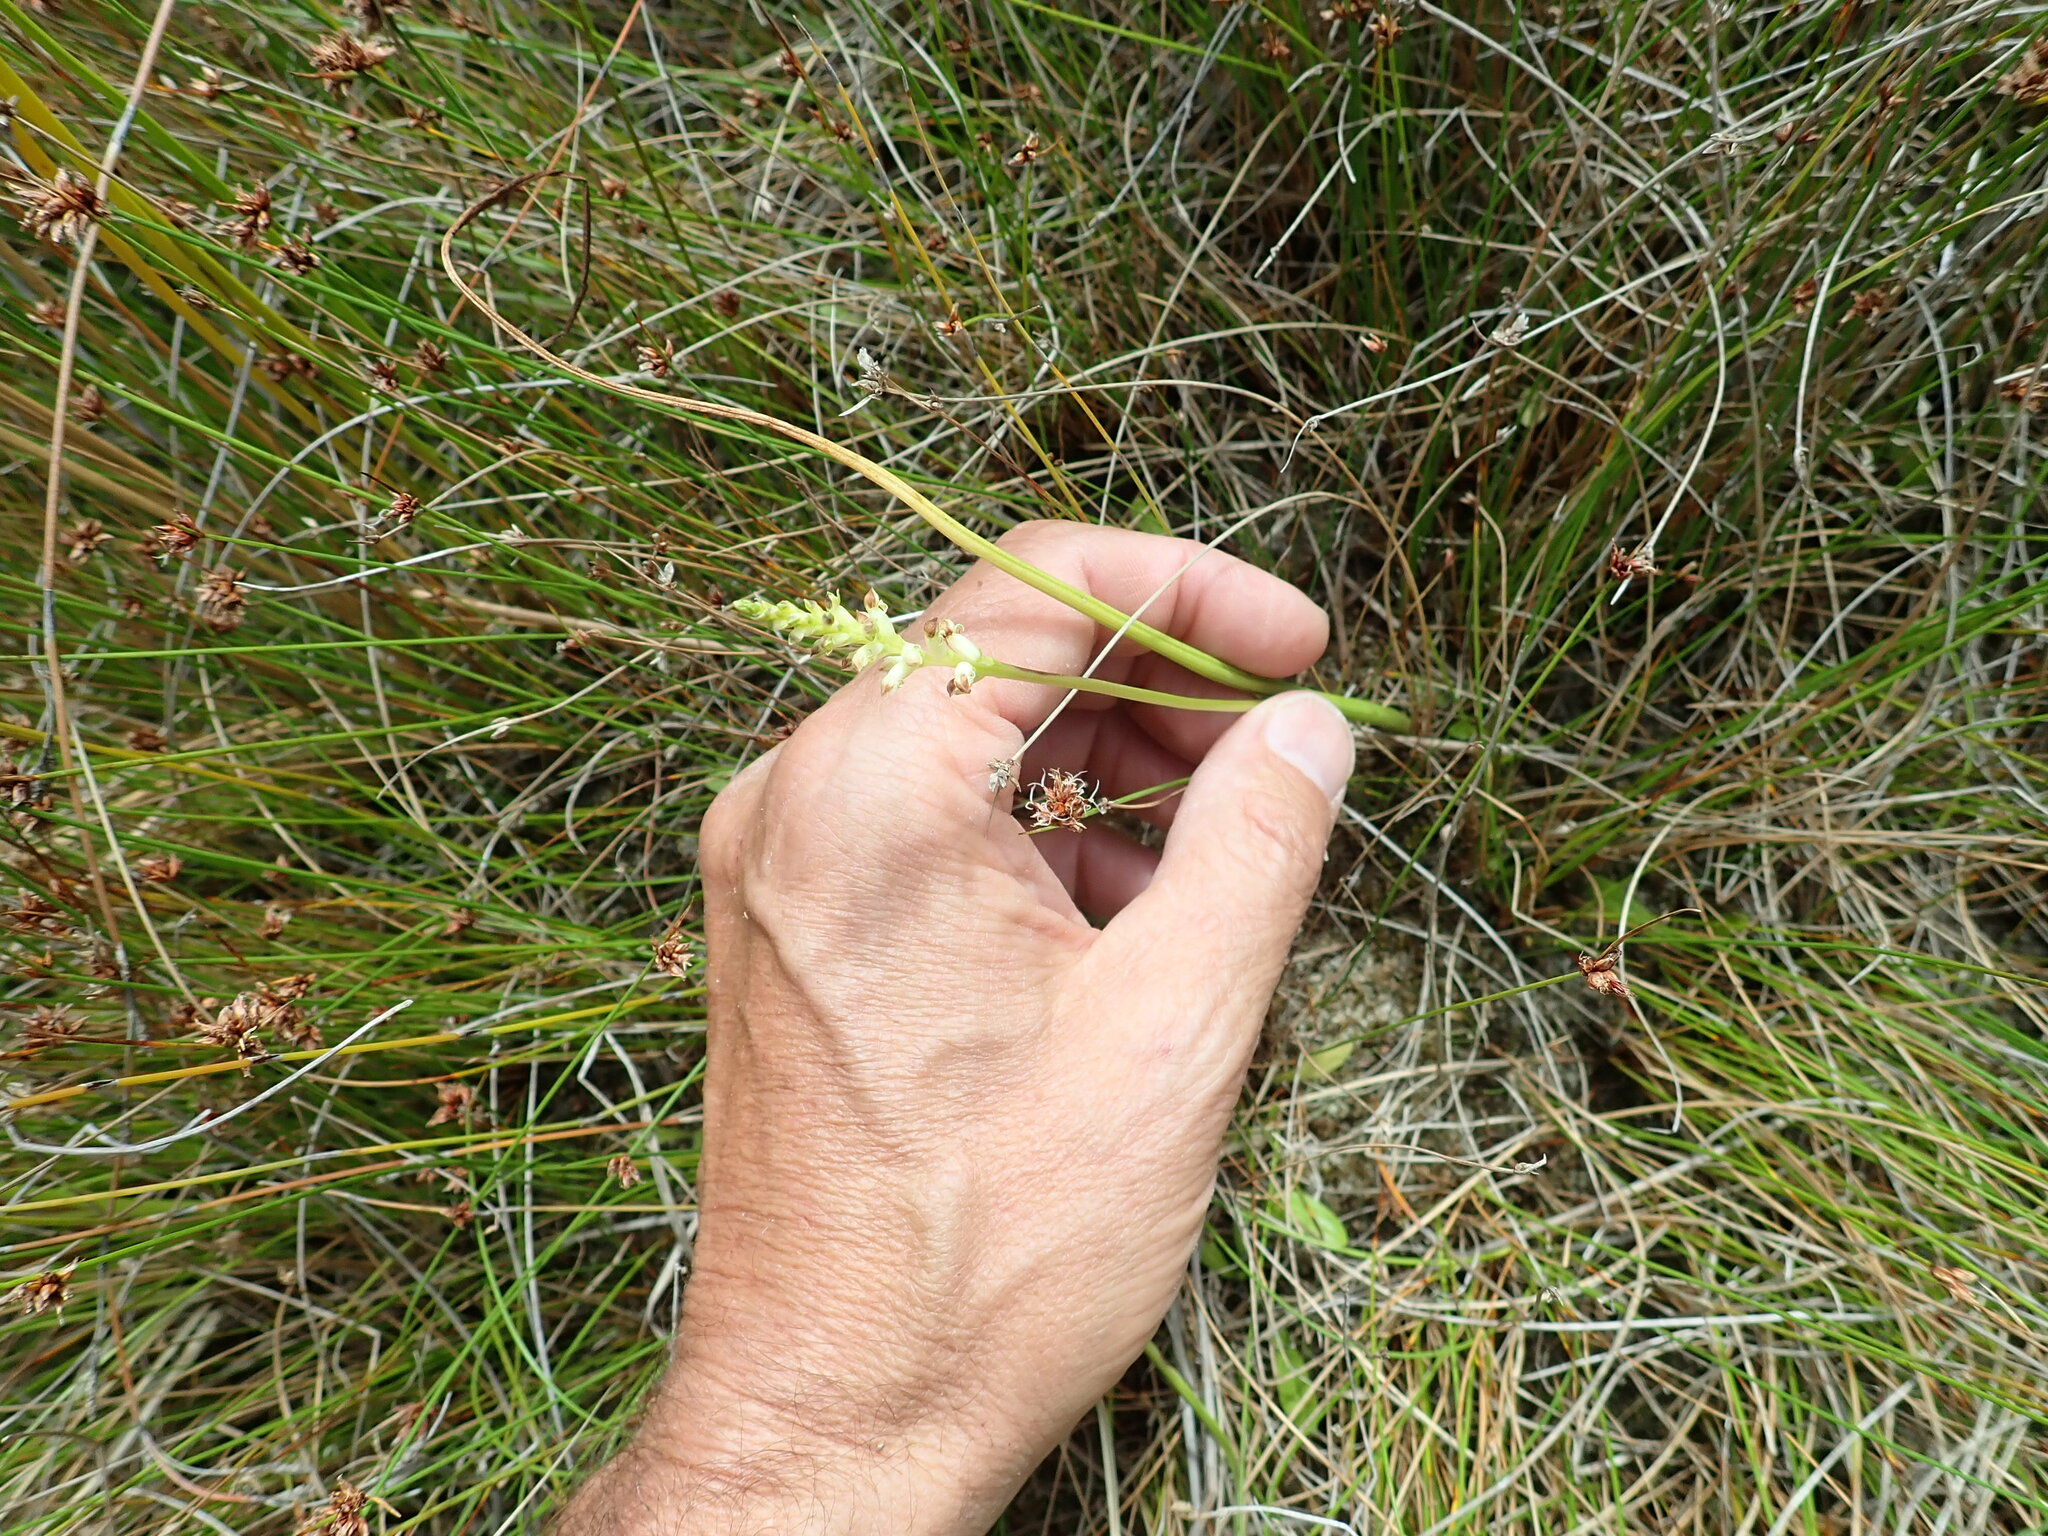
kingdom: Plantae
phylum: Tracheophyta
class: Liliopsida
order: Asparagales
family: Orchidaceae
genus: Microtis
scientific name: Microtis unifolia
